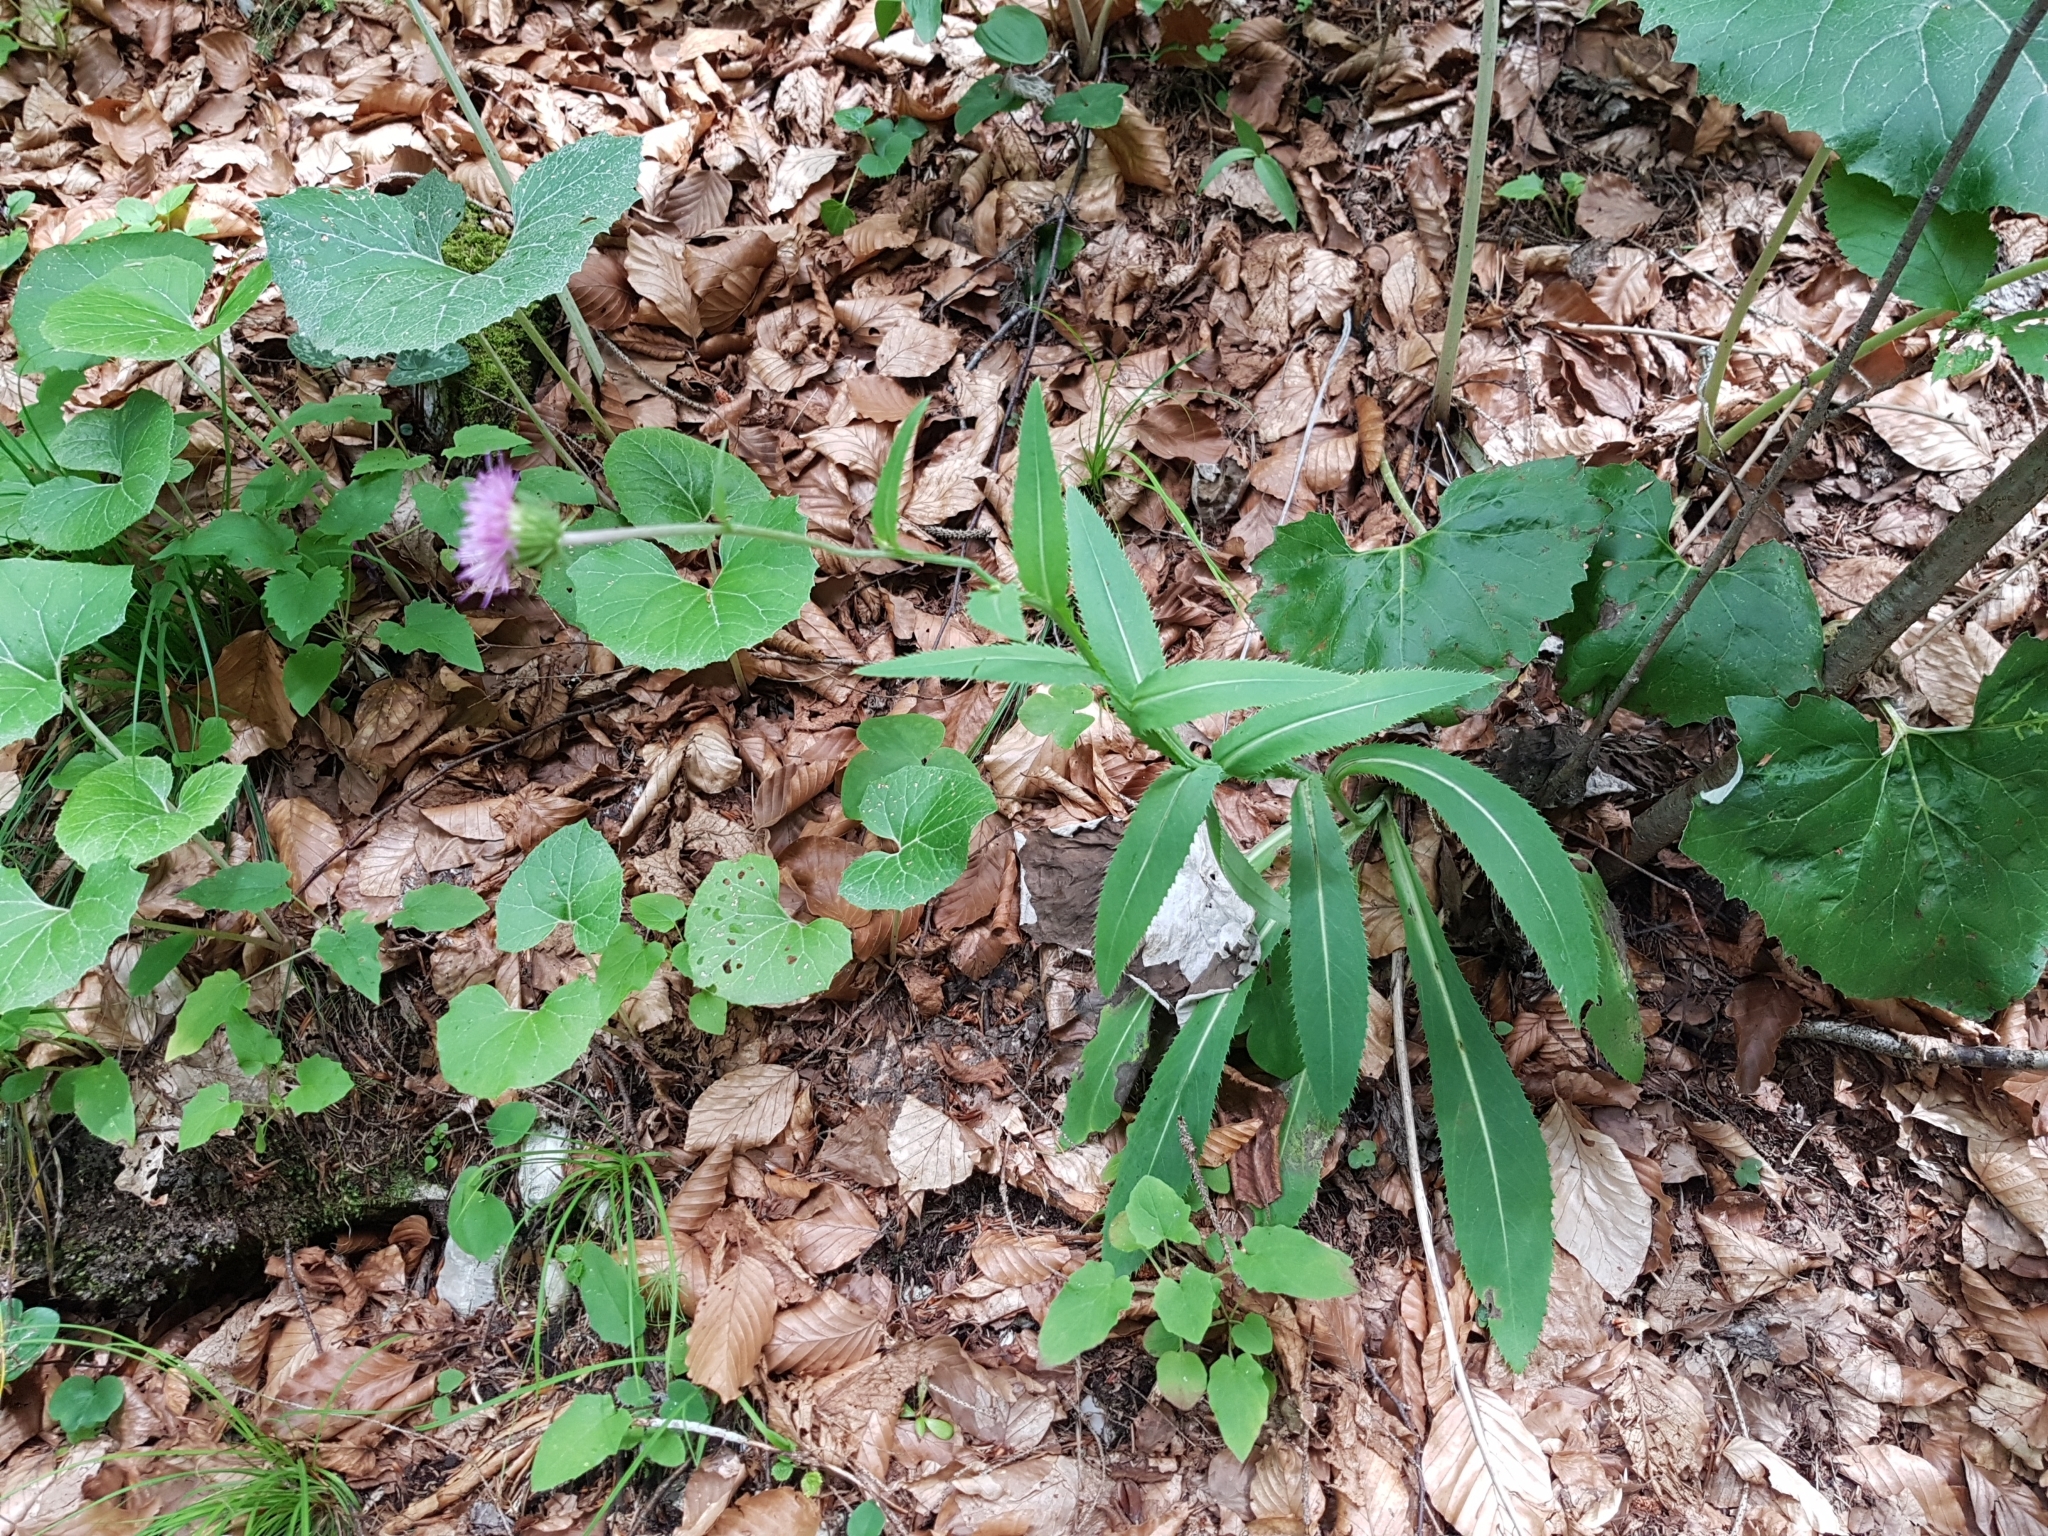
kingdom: Plantae
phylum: Tracheophyta
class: Magnoliopsida
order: Asterales
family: Asteraceae
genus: Carduus
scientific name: Carduus defloratus
